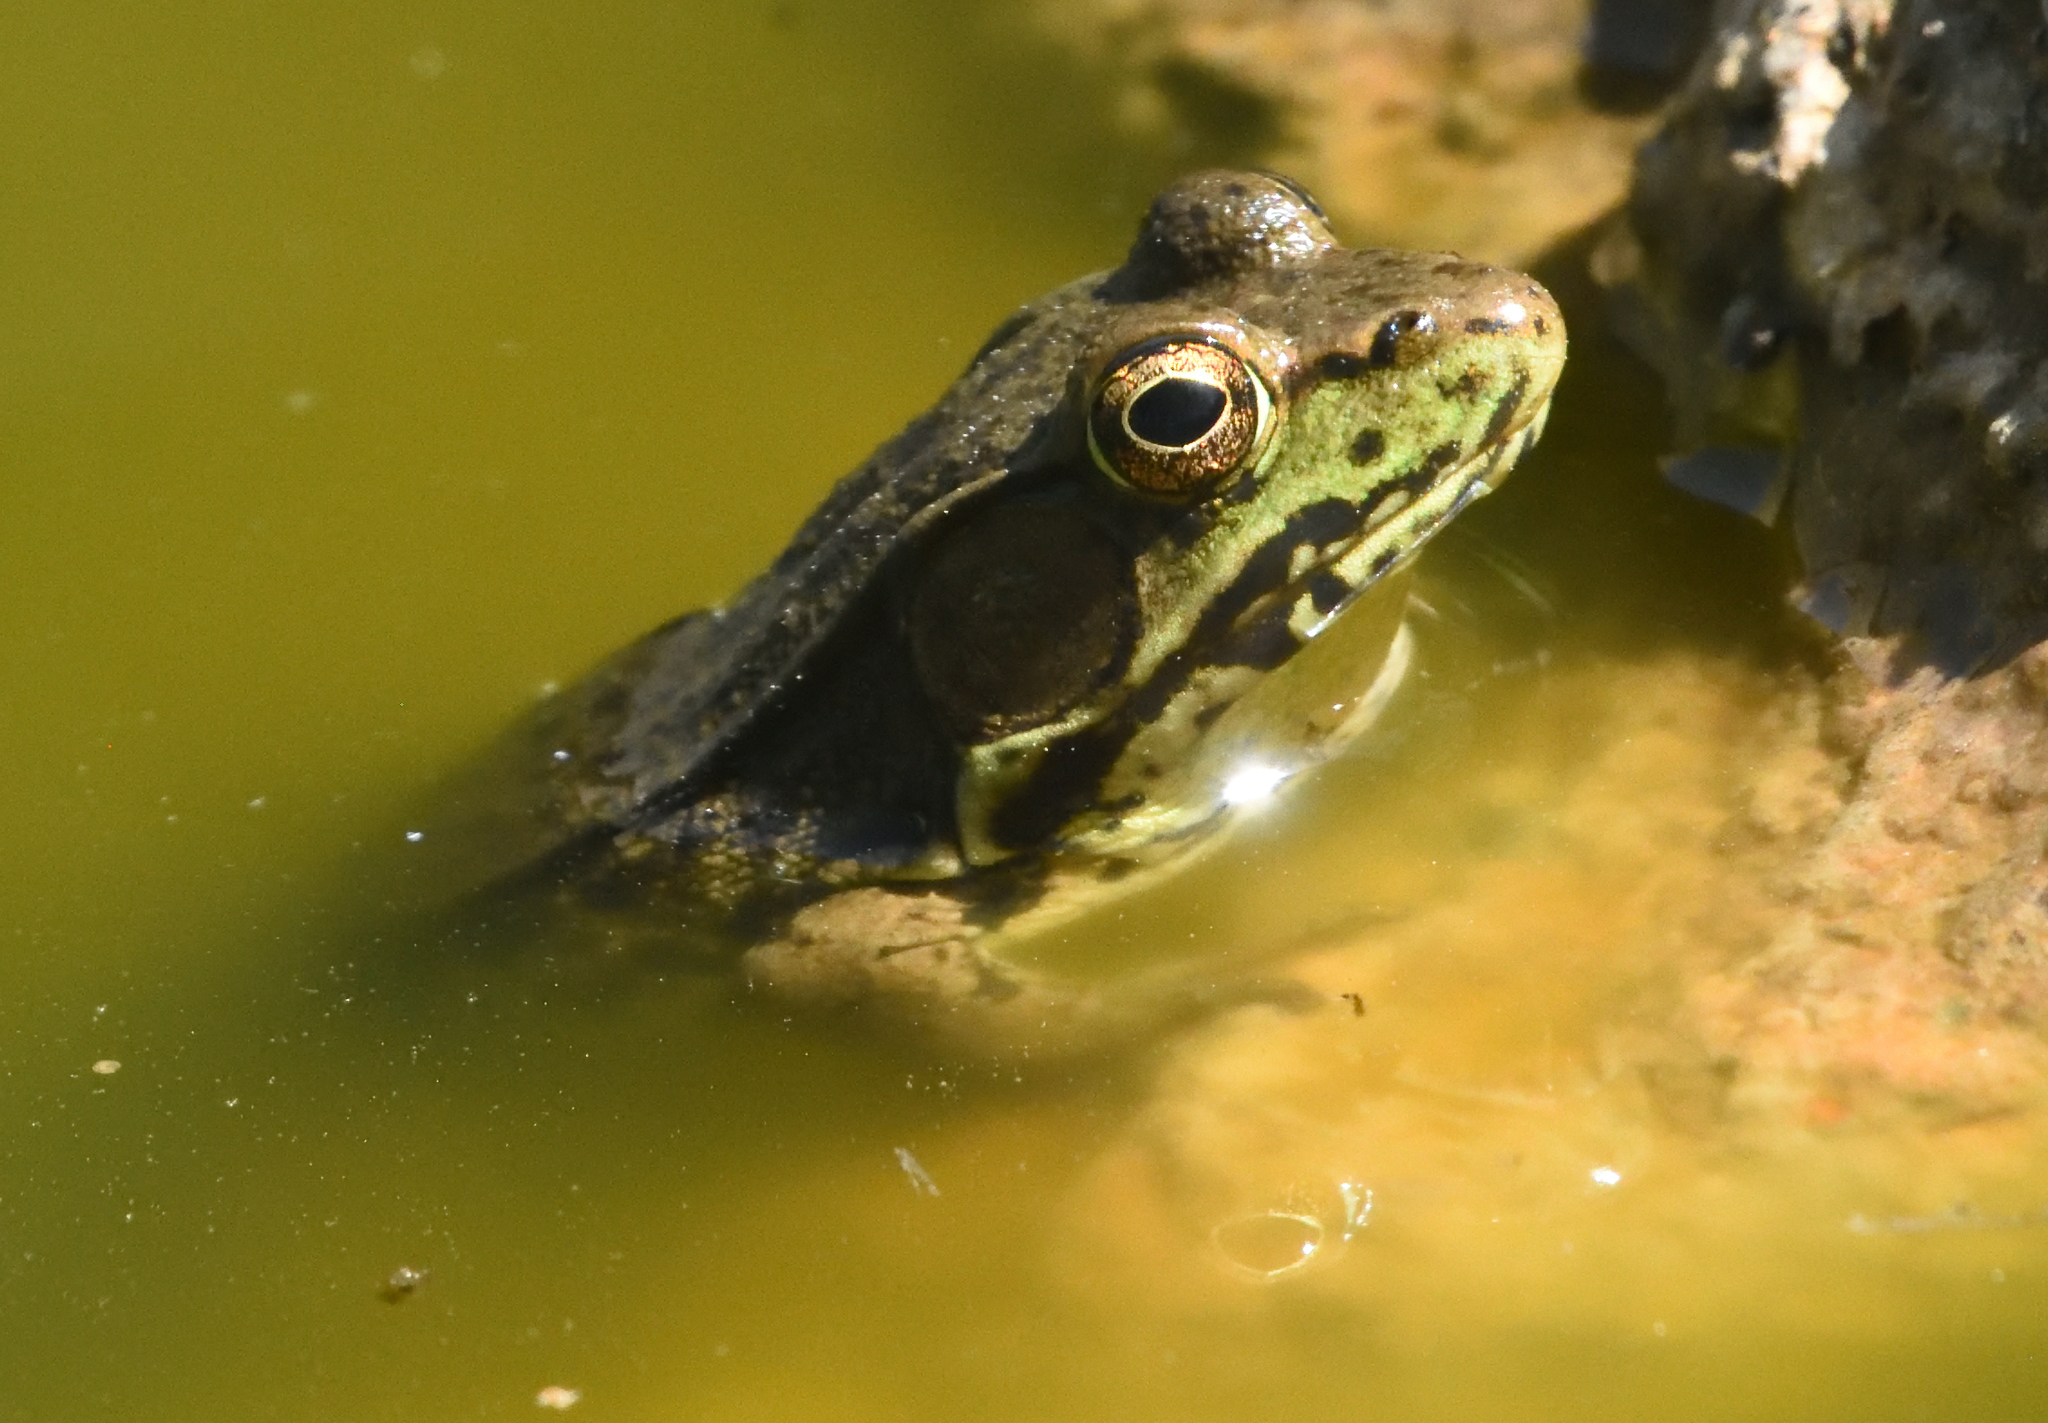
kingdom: Animalia
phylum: Chordata
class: Amphibia
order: Anura
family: Ranidae
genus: Lithobates
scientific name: Lithobates clamitans
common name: Green frog
